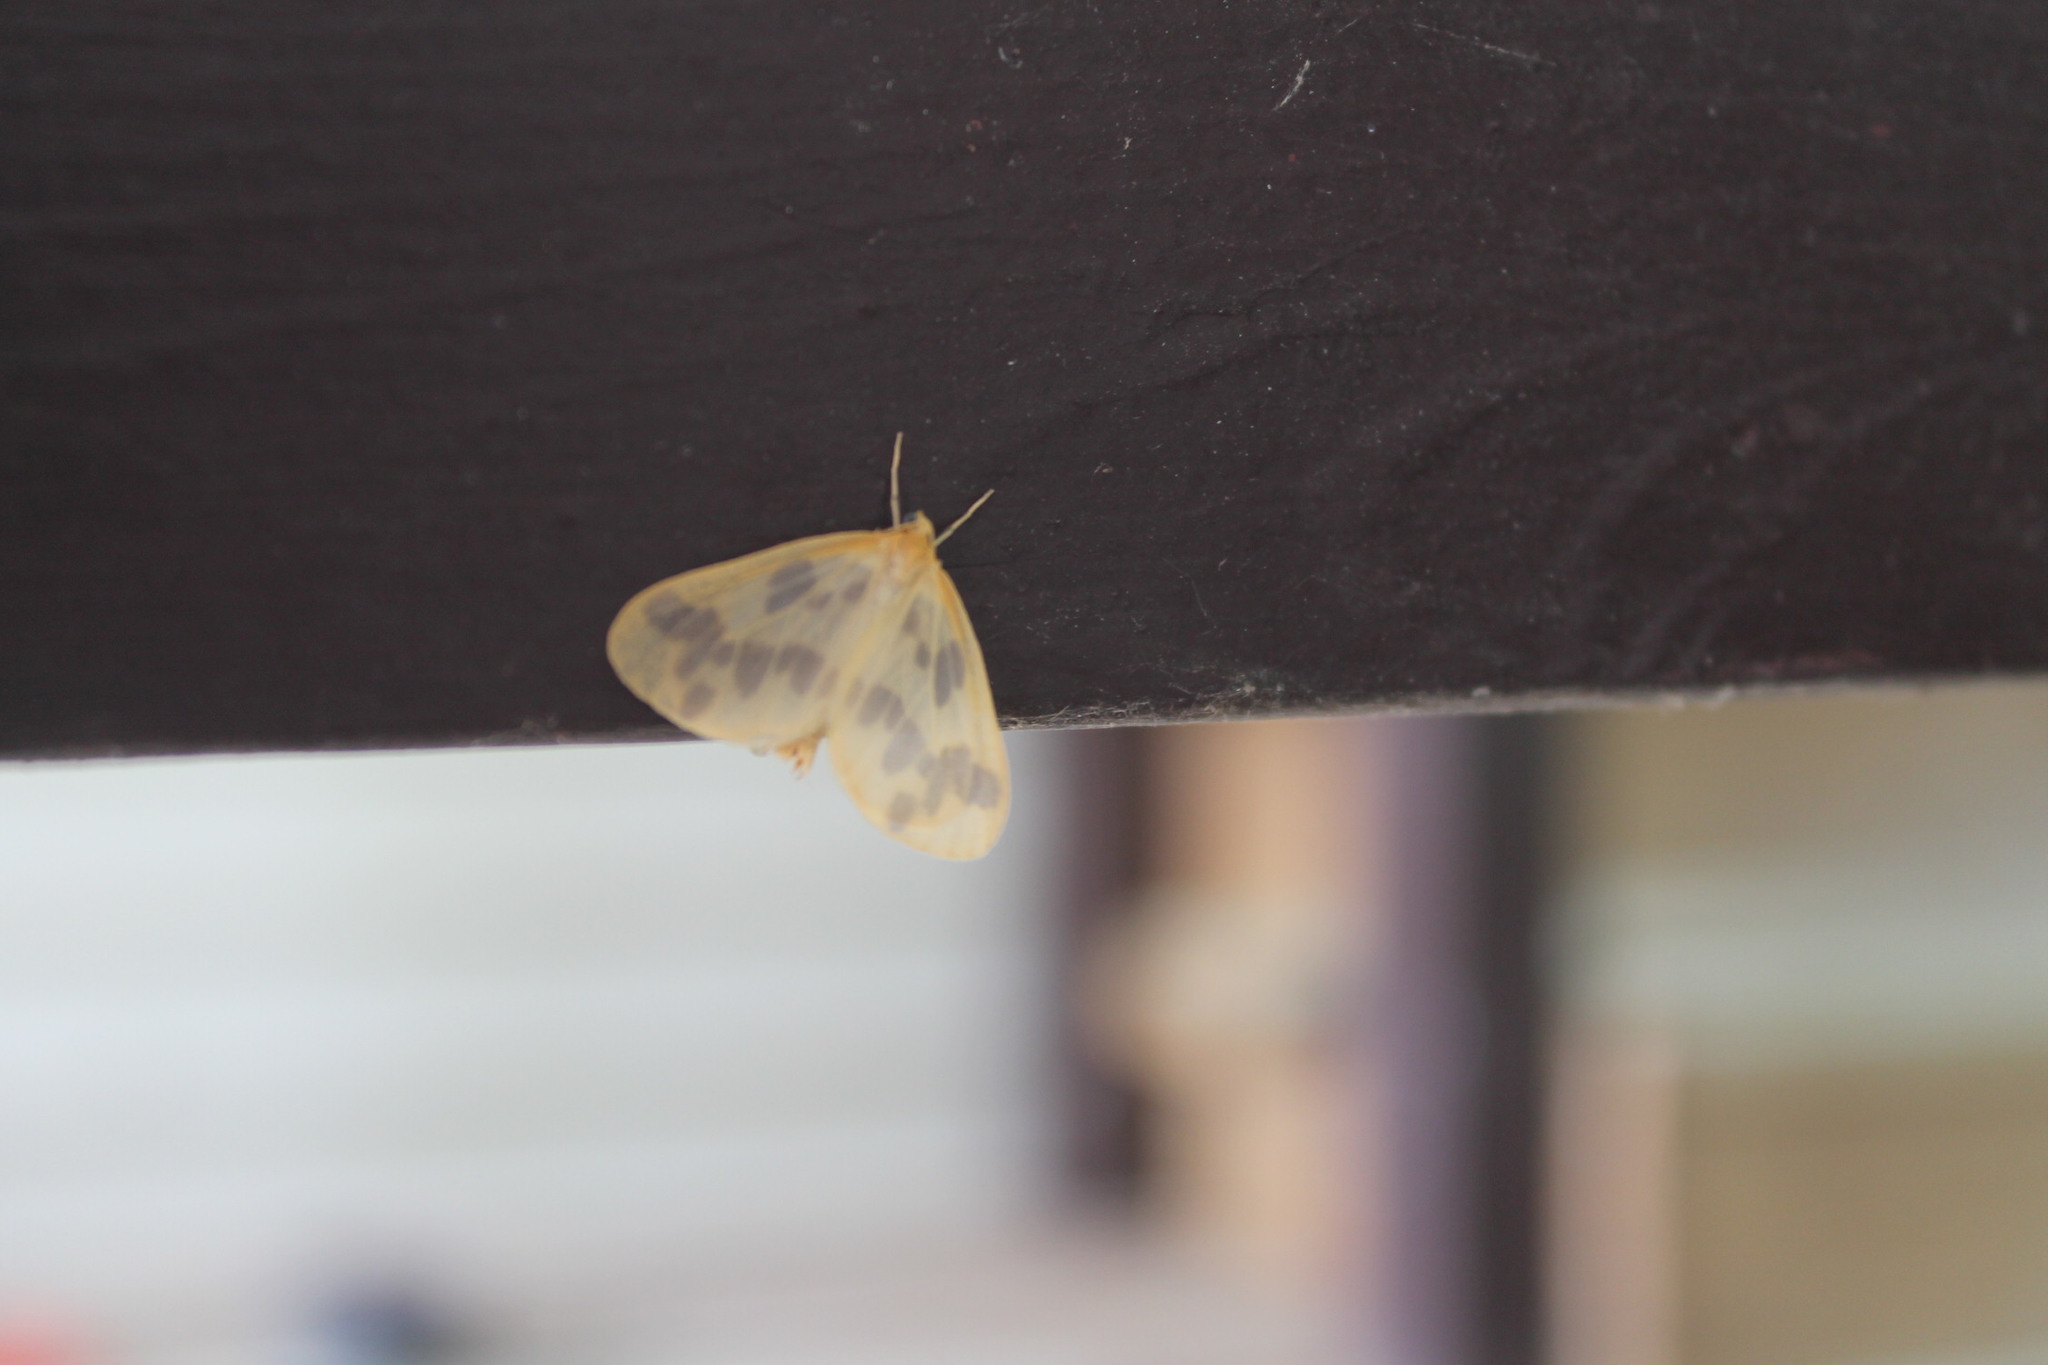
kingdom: Animalia
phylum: Arthropoda
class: Insecta
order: Lepidoptera
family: Geometridae
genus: Eubaphe
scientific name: Eubaphe mendica
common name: Beggar
